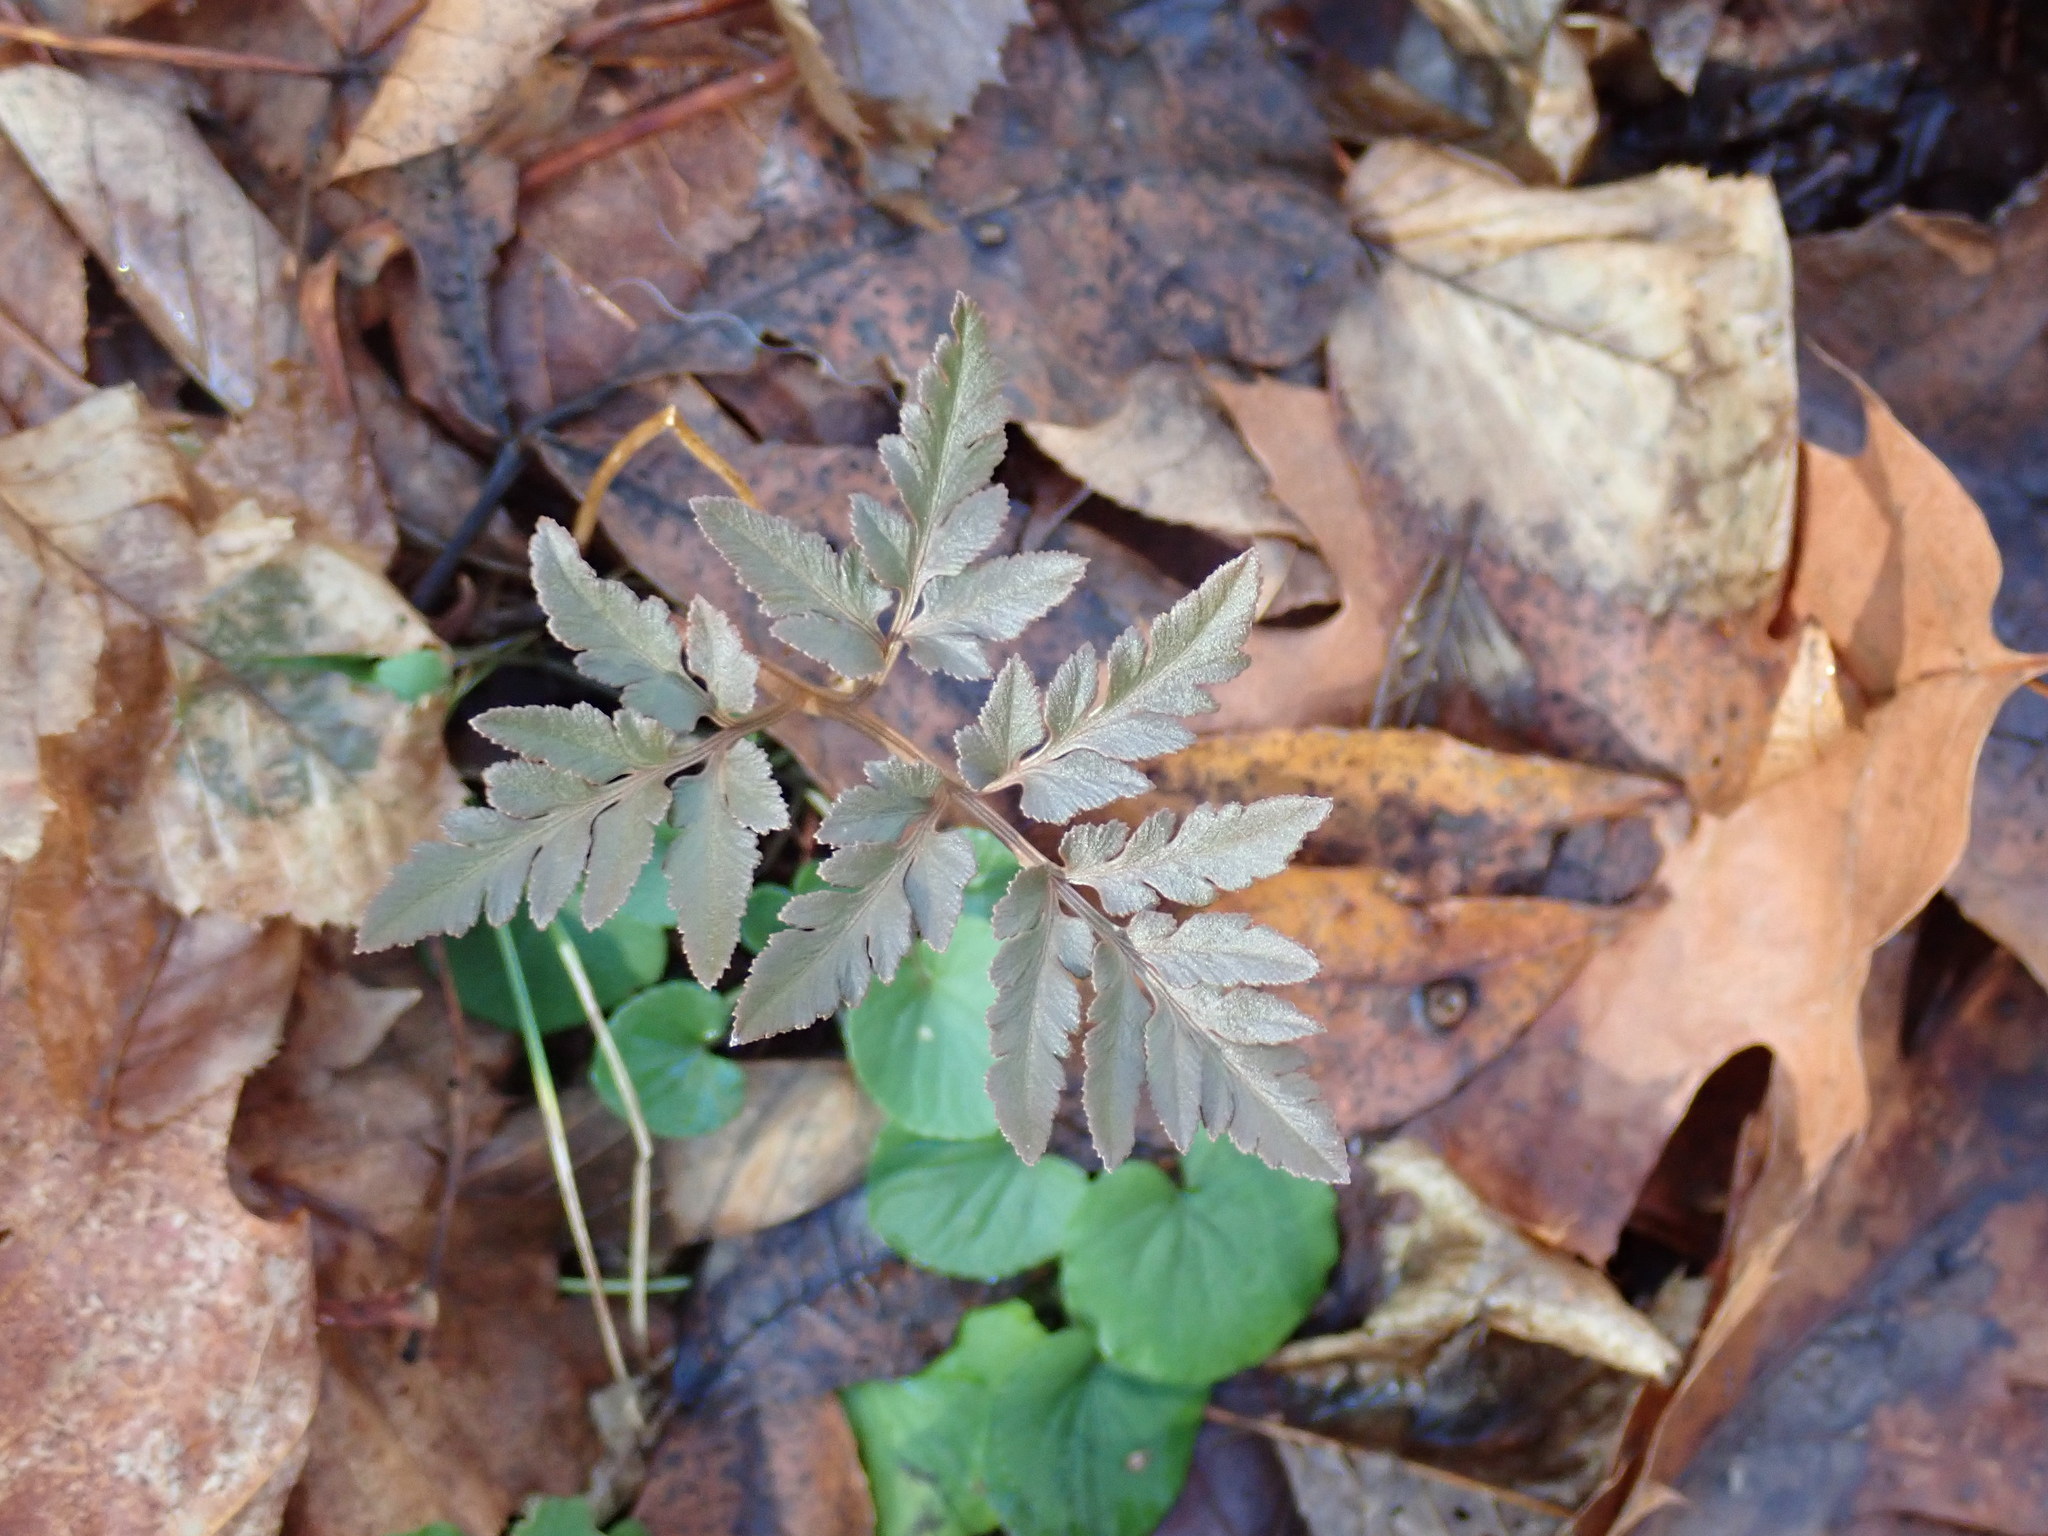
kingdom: Plantae
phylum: Tracheophyta
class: Polypodiopsida
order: Ophioglossales
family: Ophioglossaceae
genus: Sceptridium
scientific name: Sceptridium dissectum
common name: Cut-leaved grapefern
